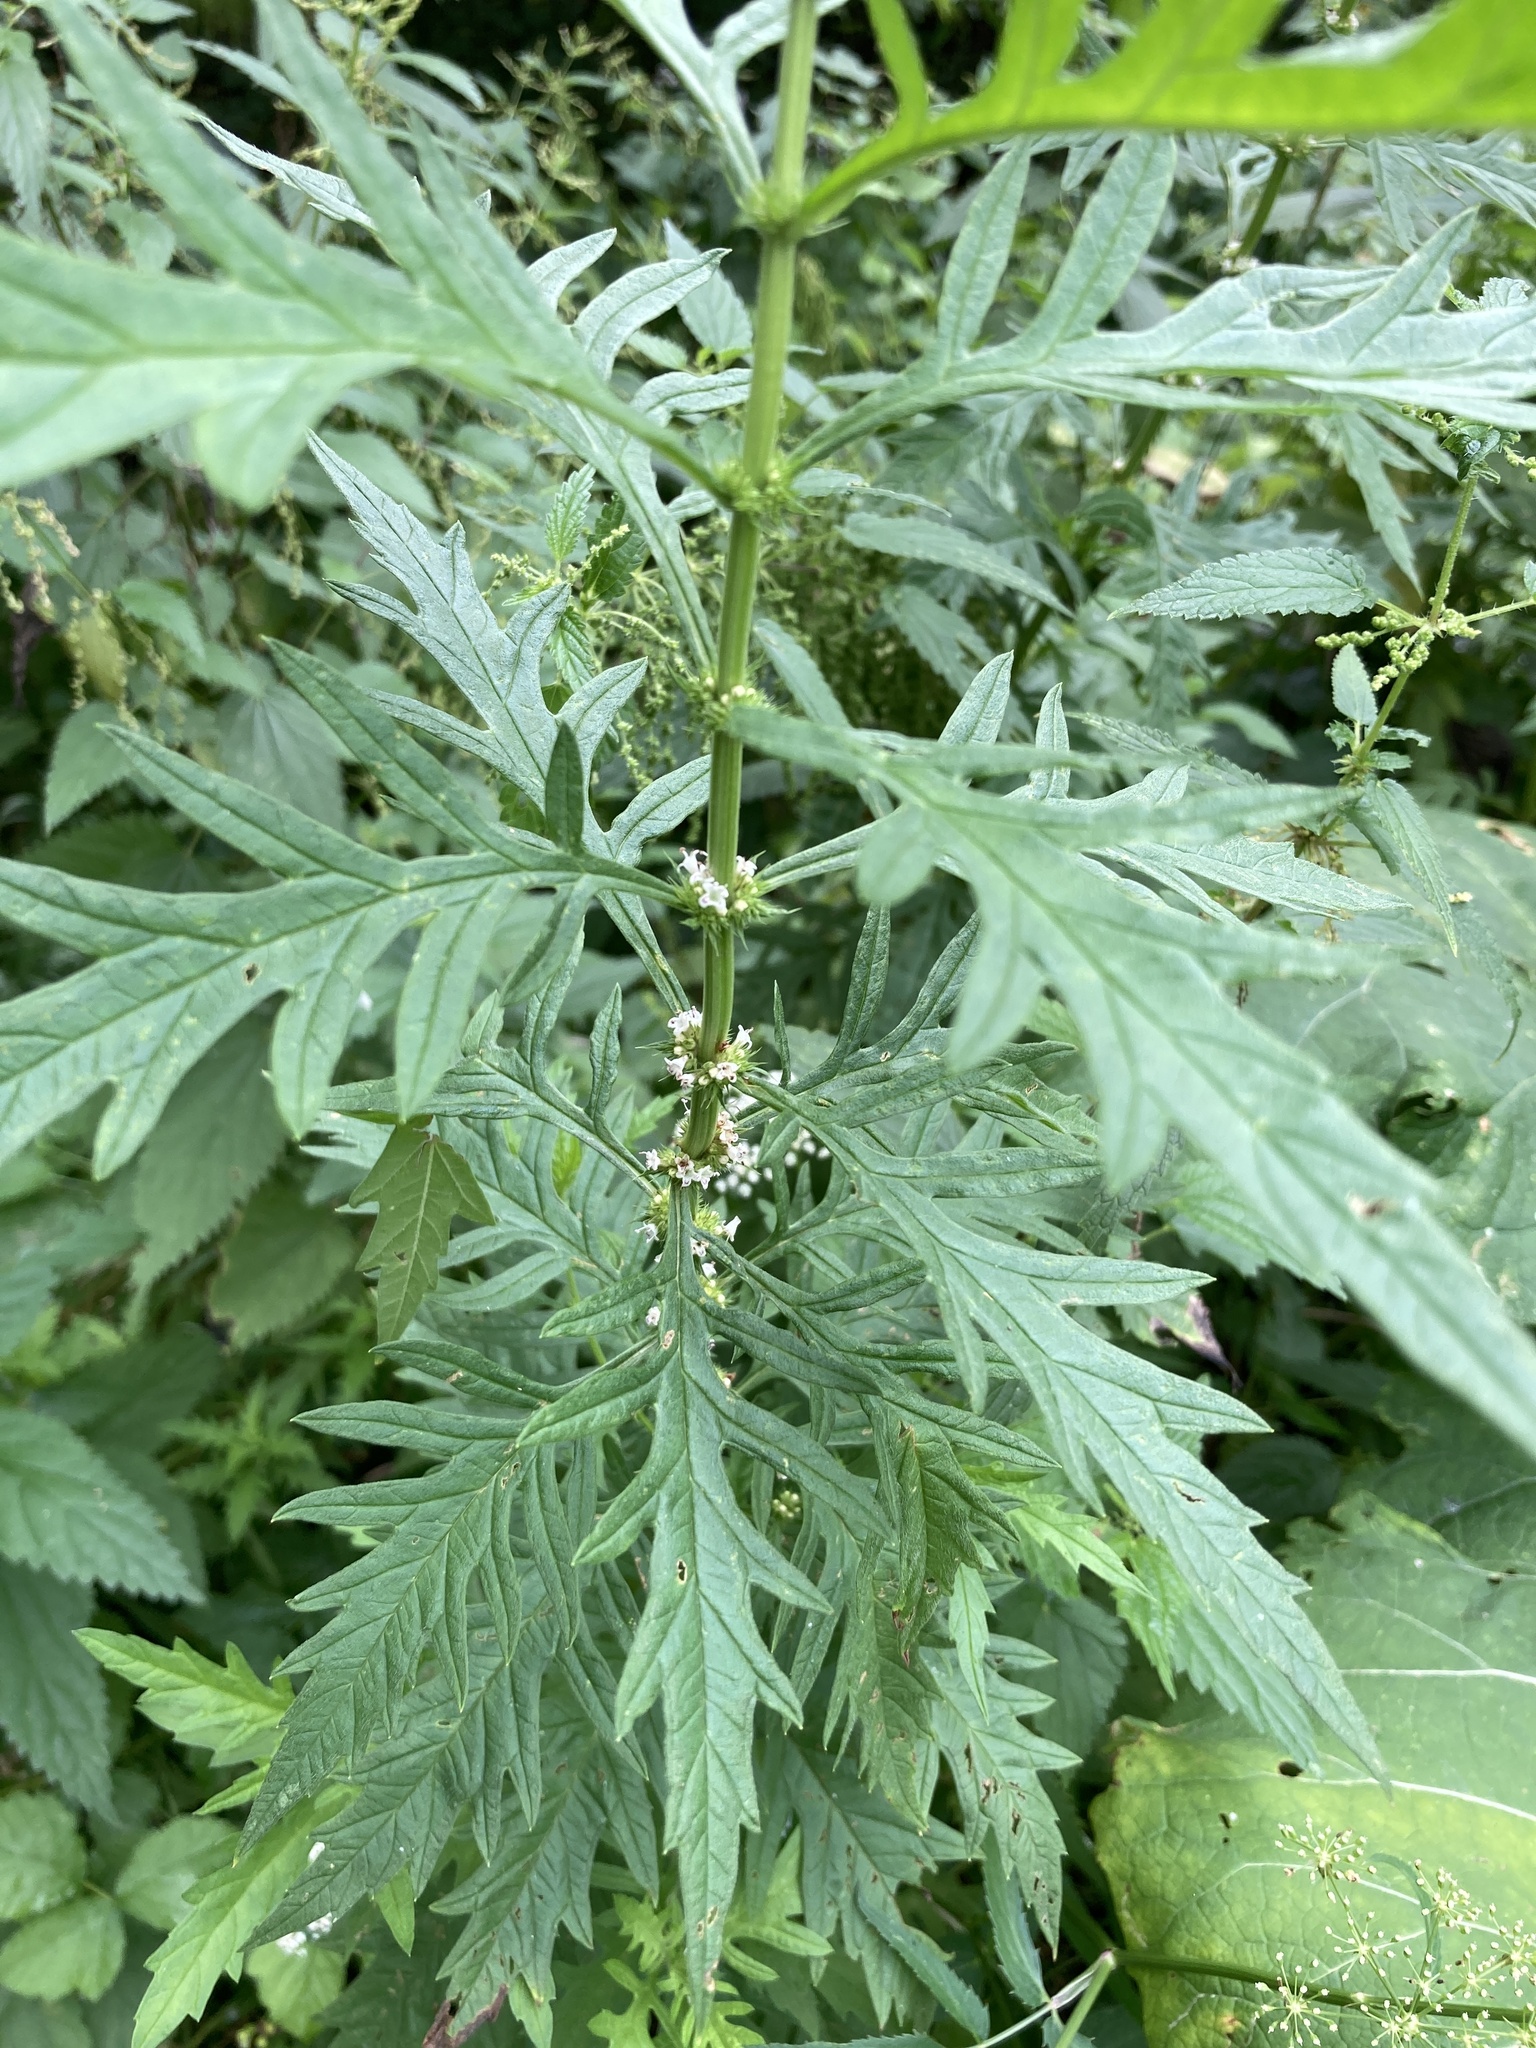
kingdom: Plantae
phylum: Tracheophyta
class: Magnoliopsida
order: Lamiales
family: Lamiaceae
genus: Lycopus
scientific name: Lycopus exaltatus
